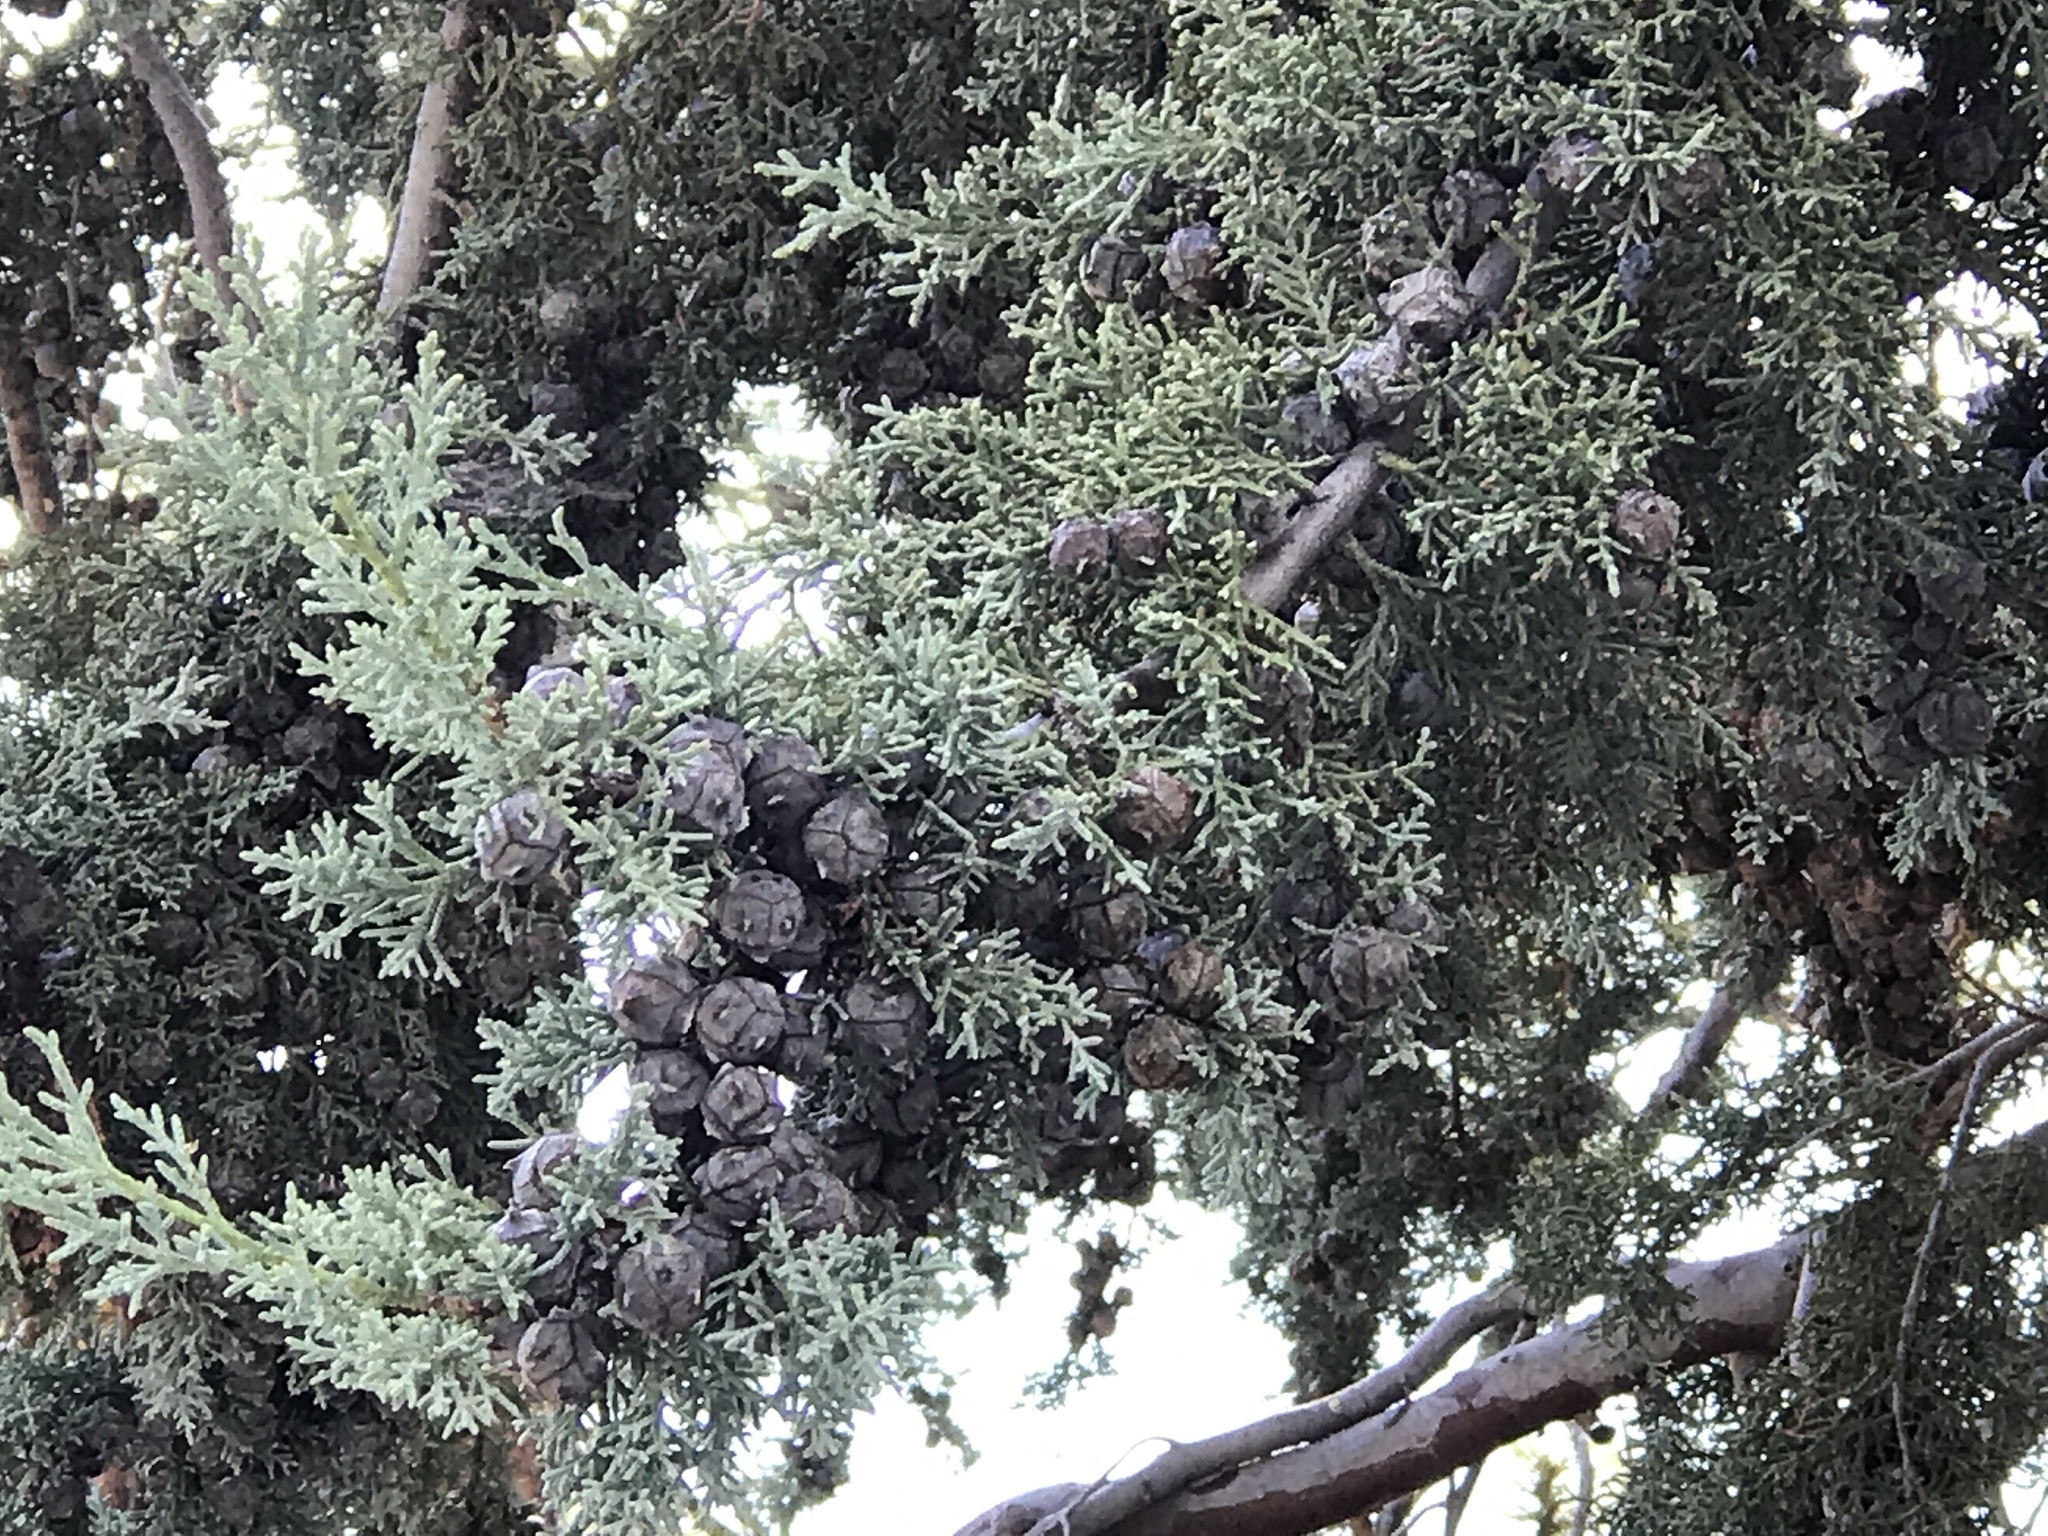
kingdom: Plantae
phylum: Tracheophyta
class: Pinopsida
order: Pinales
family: Cupressaceae
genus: Cupressus
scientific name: Cupressus arizonica
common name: Arizona cypress
